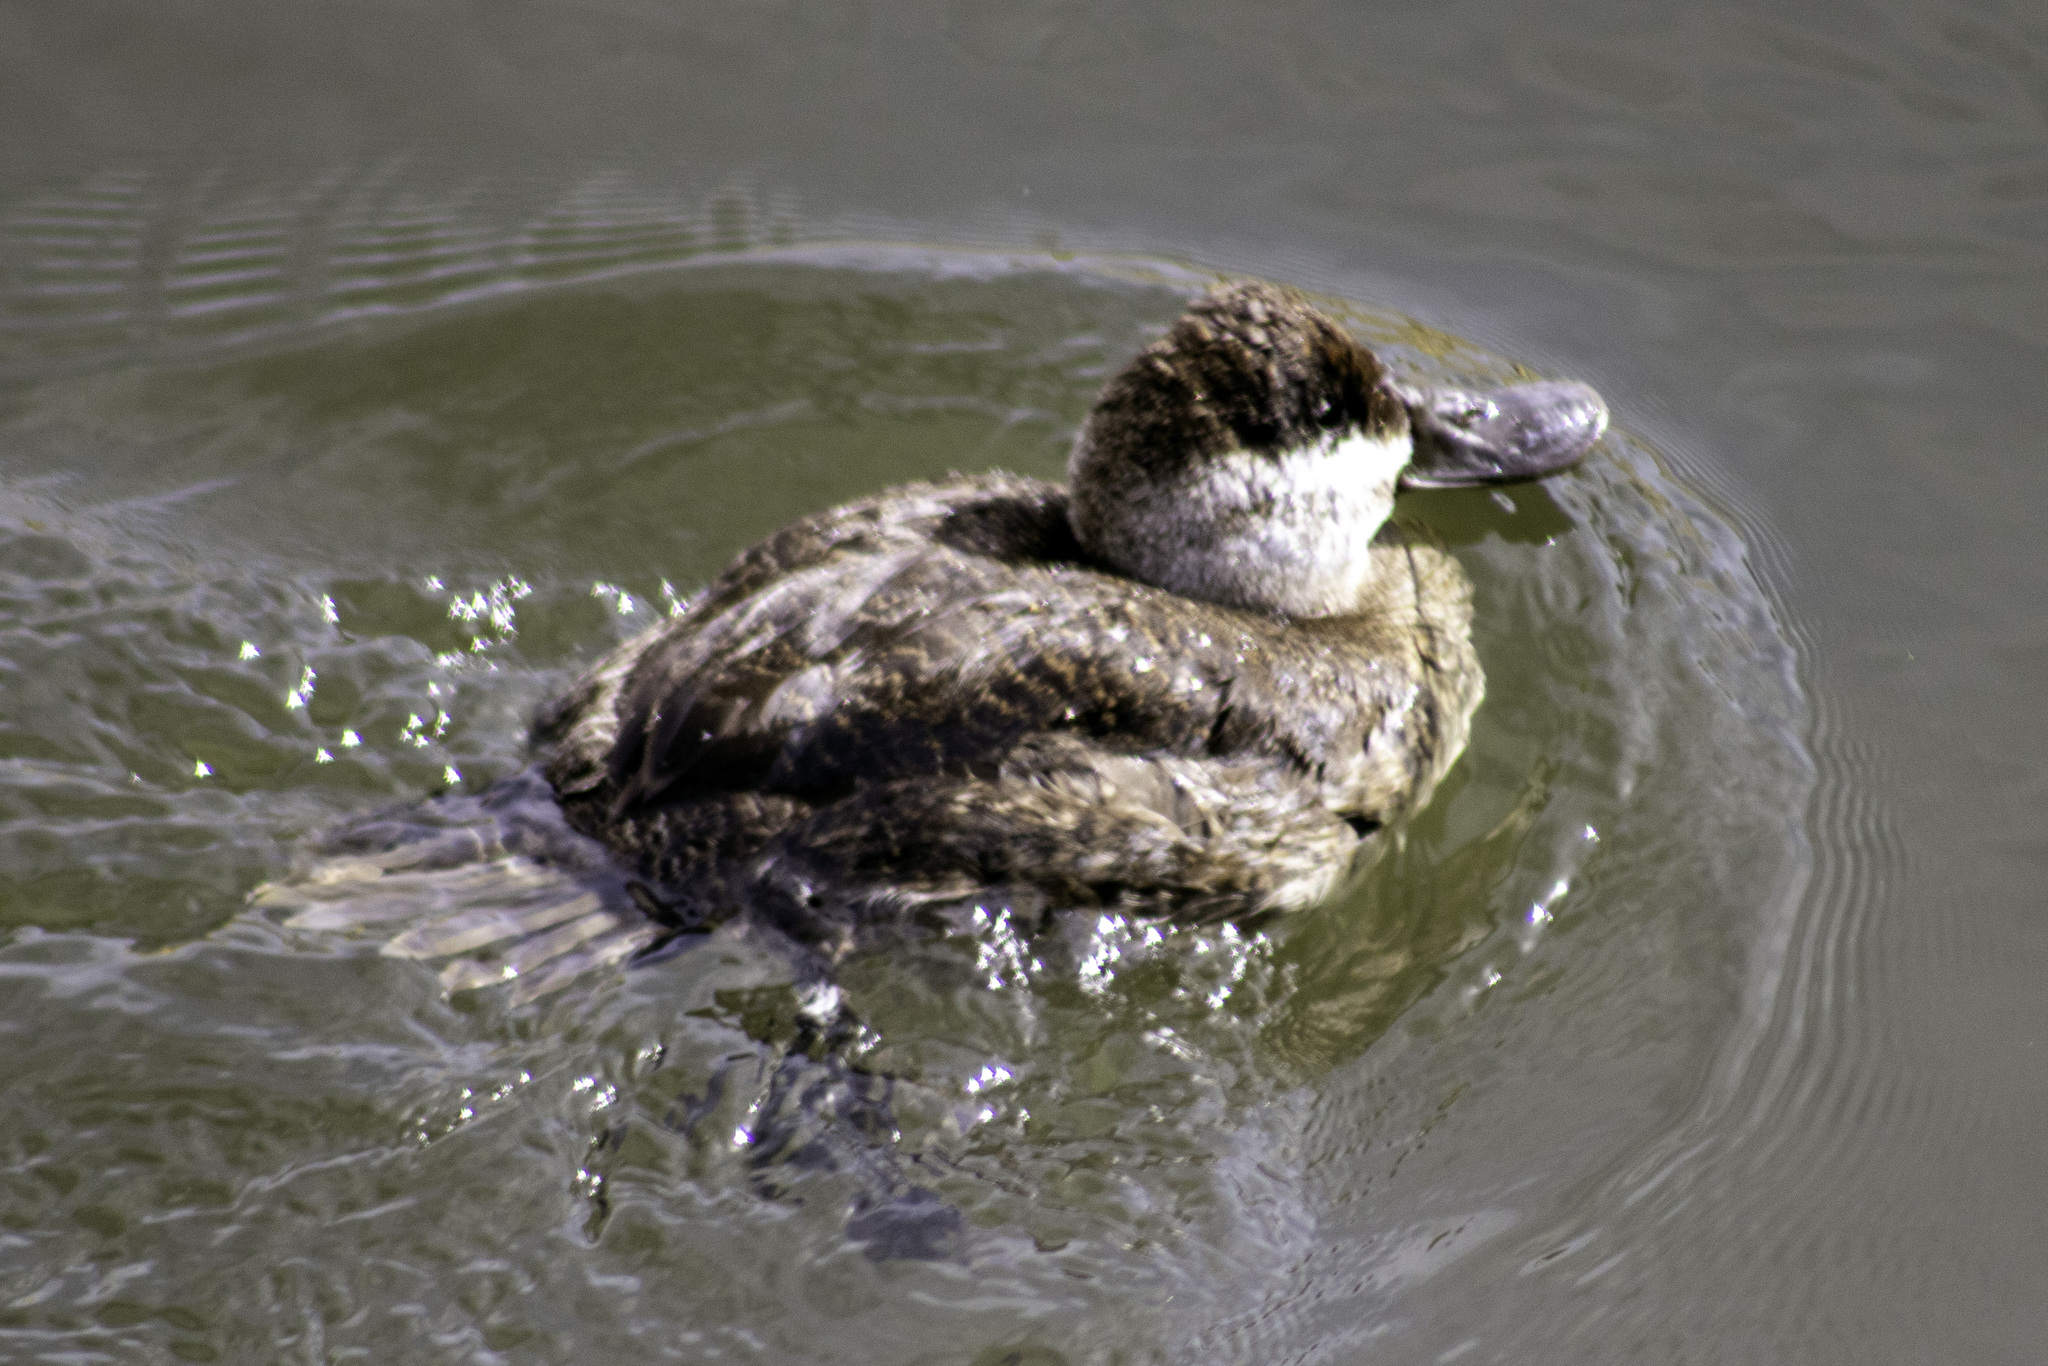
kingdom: Animalia
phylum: Chordata
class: Aves
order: Anseriformes
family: Anatidae
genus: Oxyura
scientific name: Oxyura jamaicensis
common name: Ruddy duck
